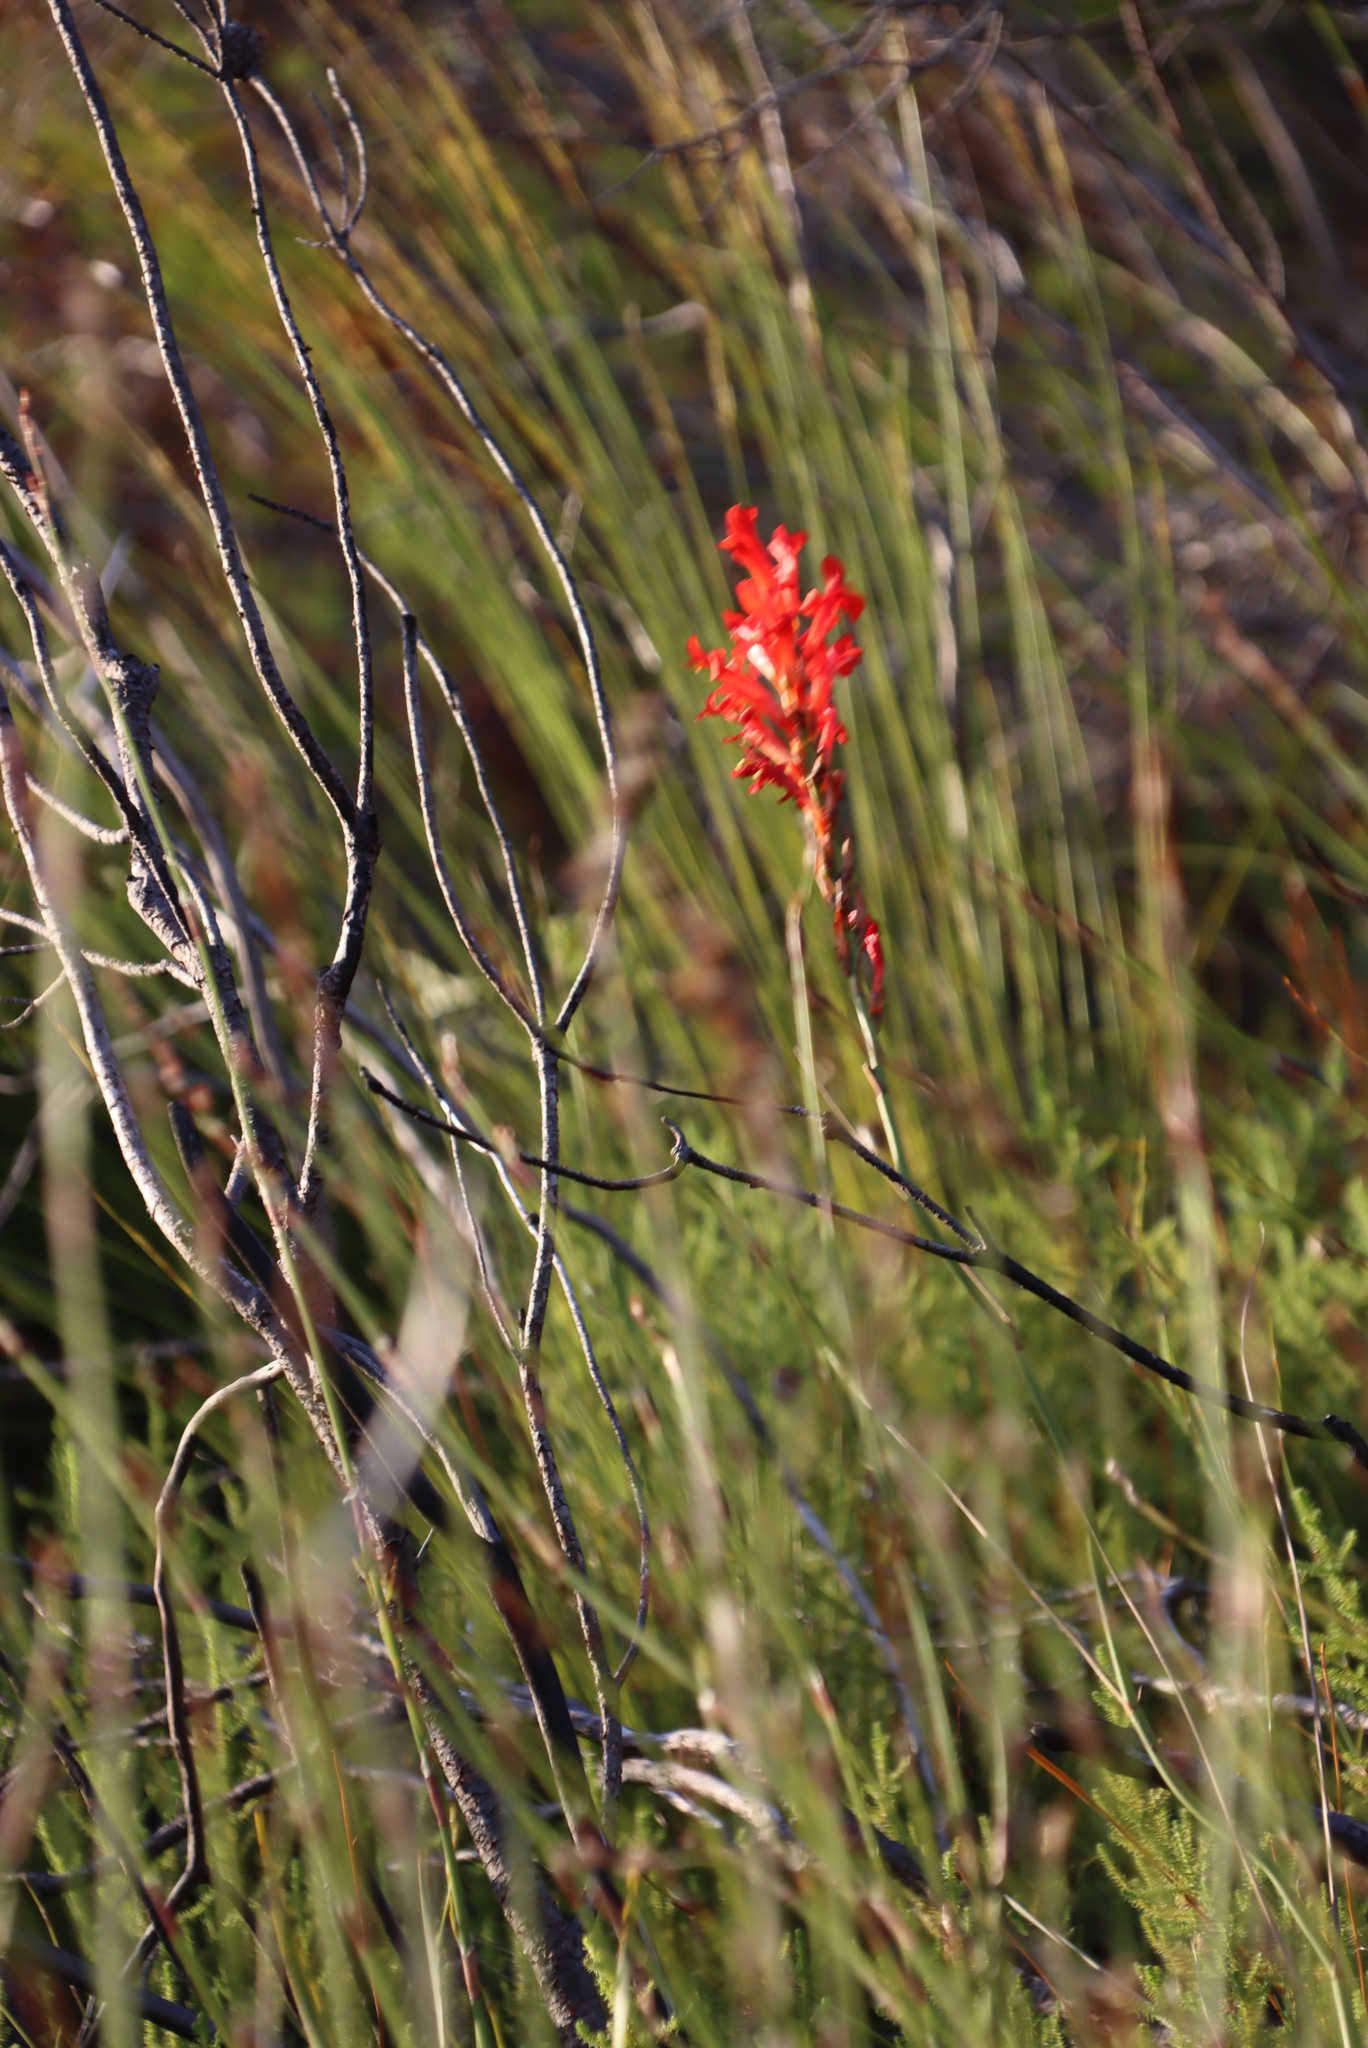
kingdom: Plantae
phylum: Tracheophyta
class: Liliopsida
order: Asparagales
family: Iridaceae
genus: Tritoniopsis
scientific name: Tritoniopsis triticea
